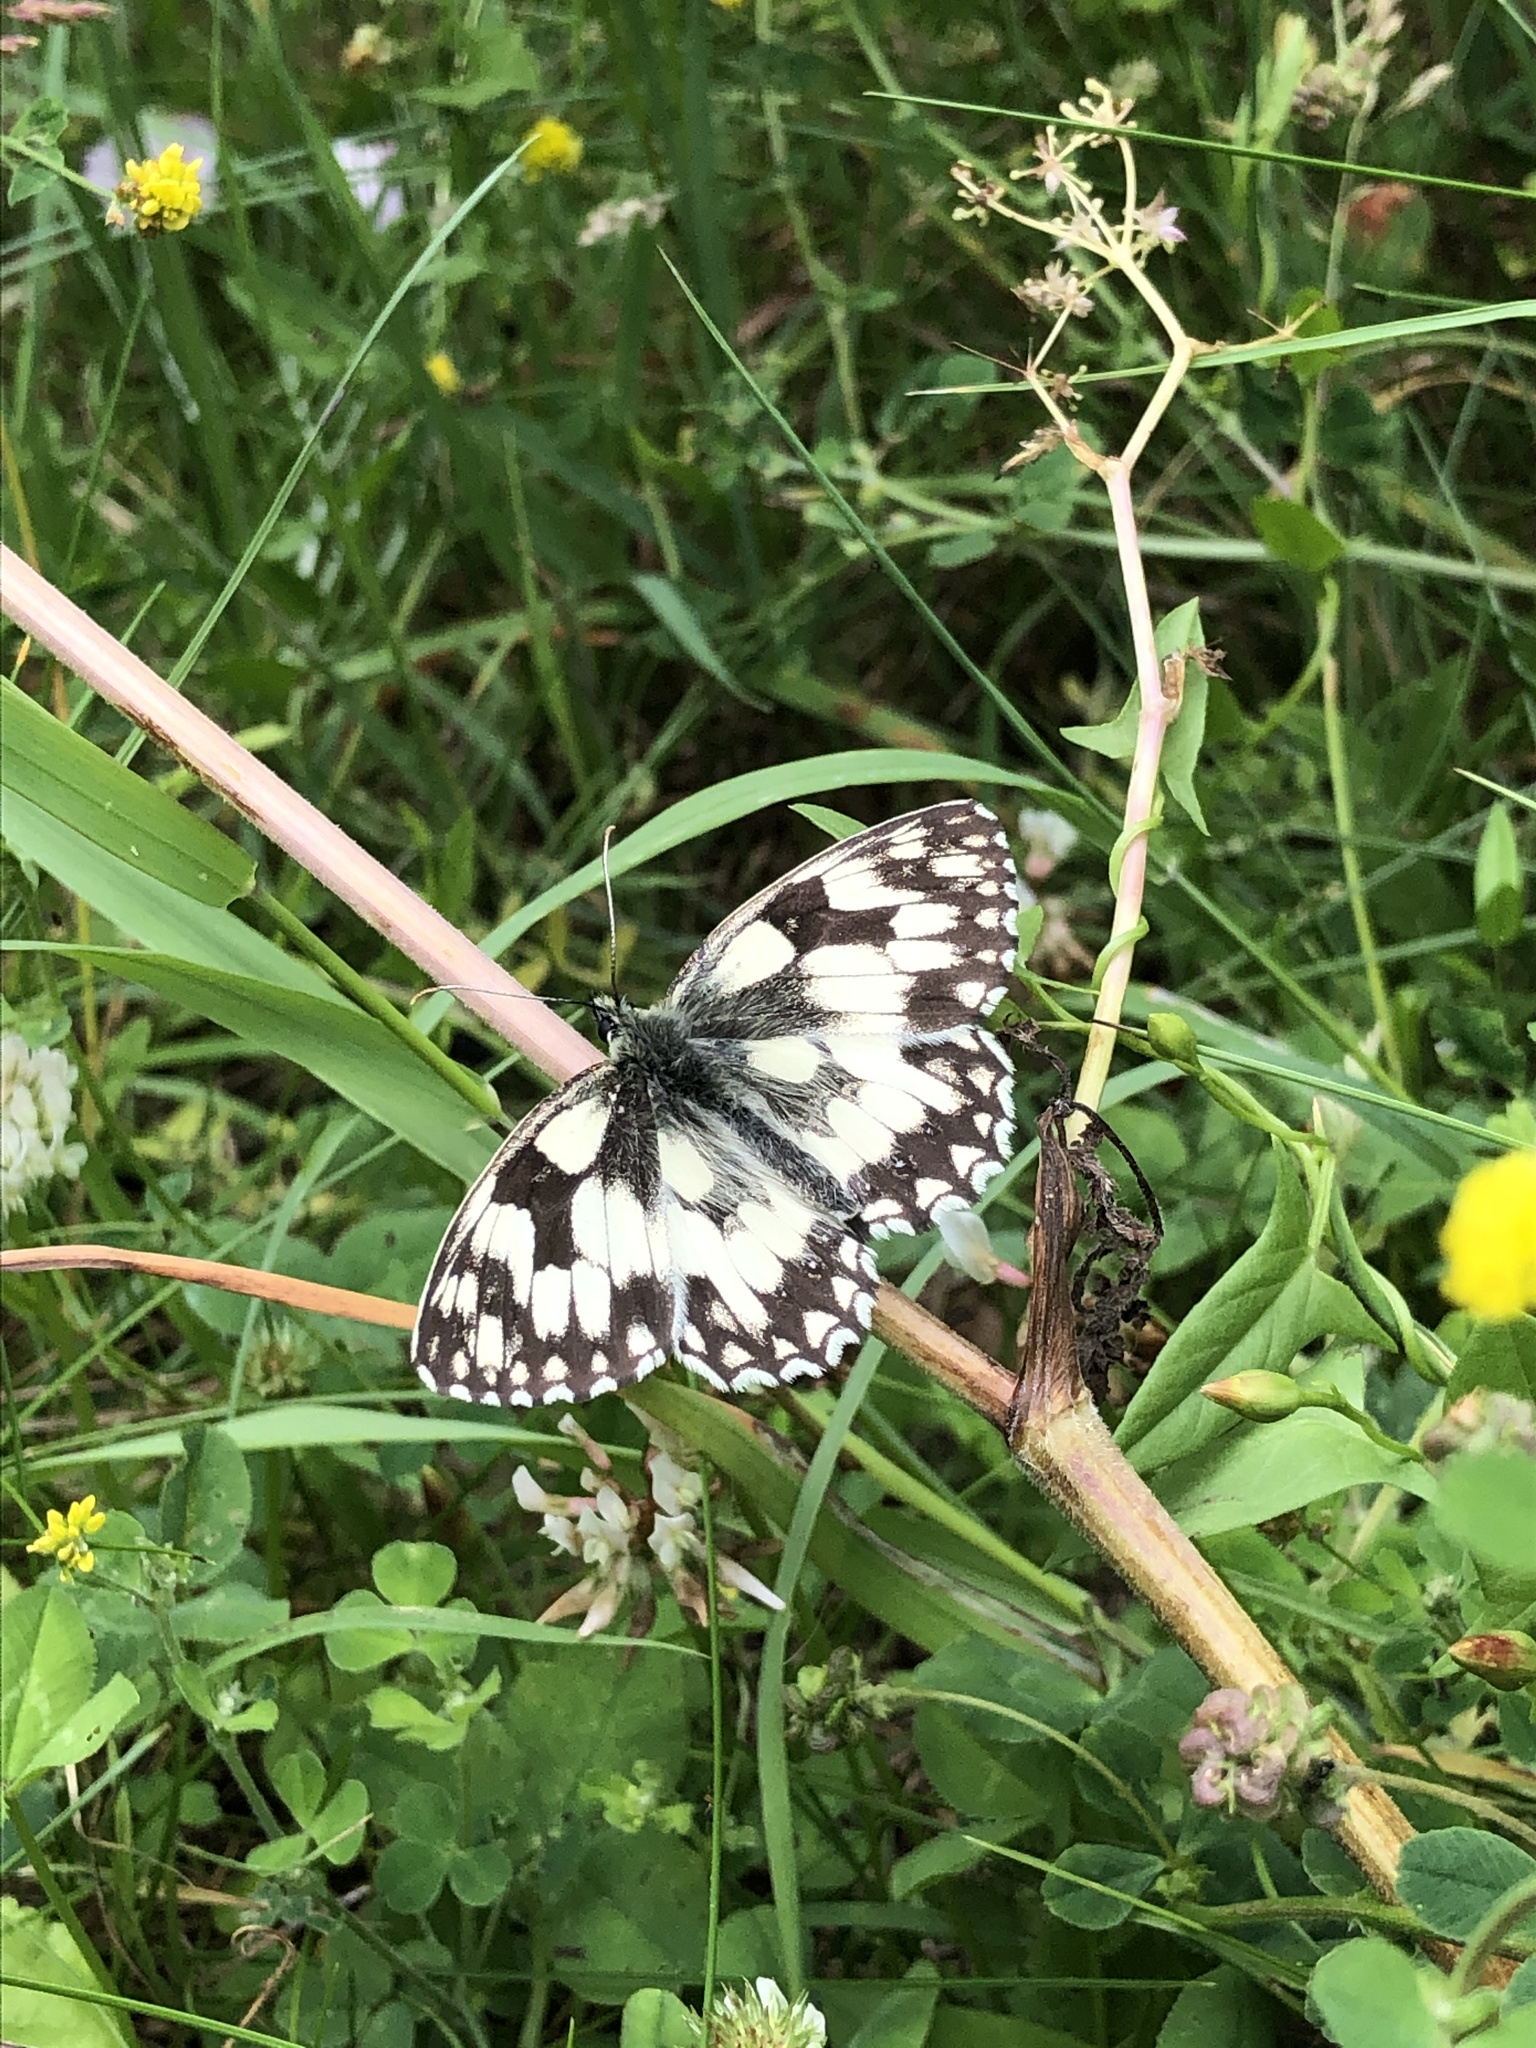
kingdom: Animalia
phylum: Arthropoda
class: Insecta
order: Lepidoptera
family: Nymphalidae
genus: Melanargia
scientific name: Melanargia galathea
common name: Marbled white
